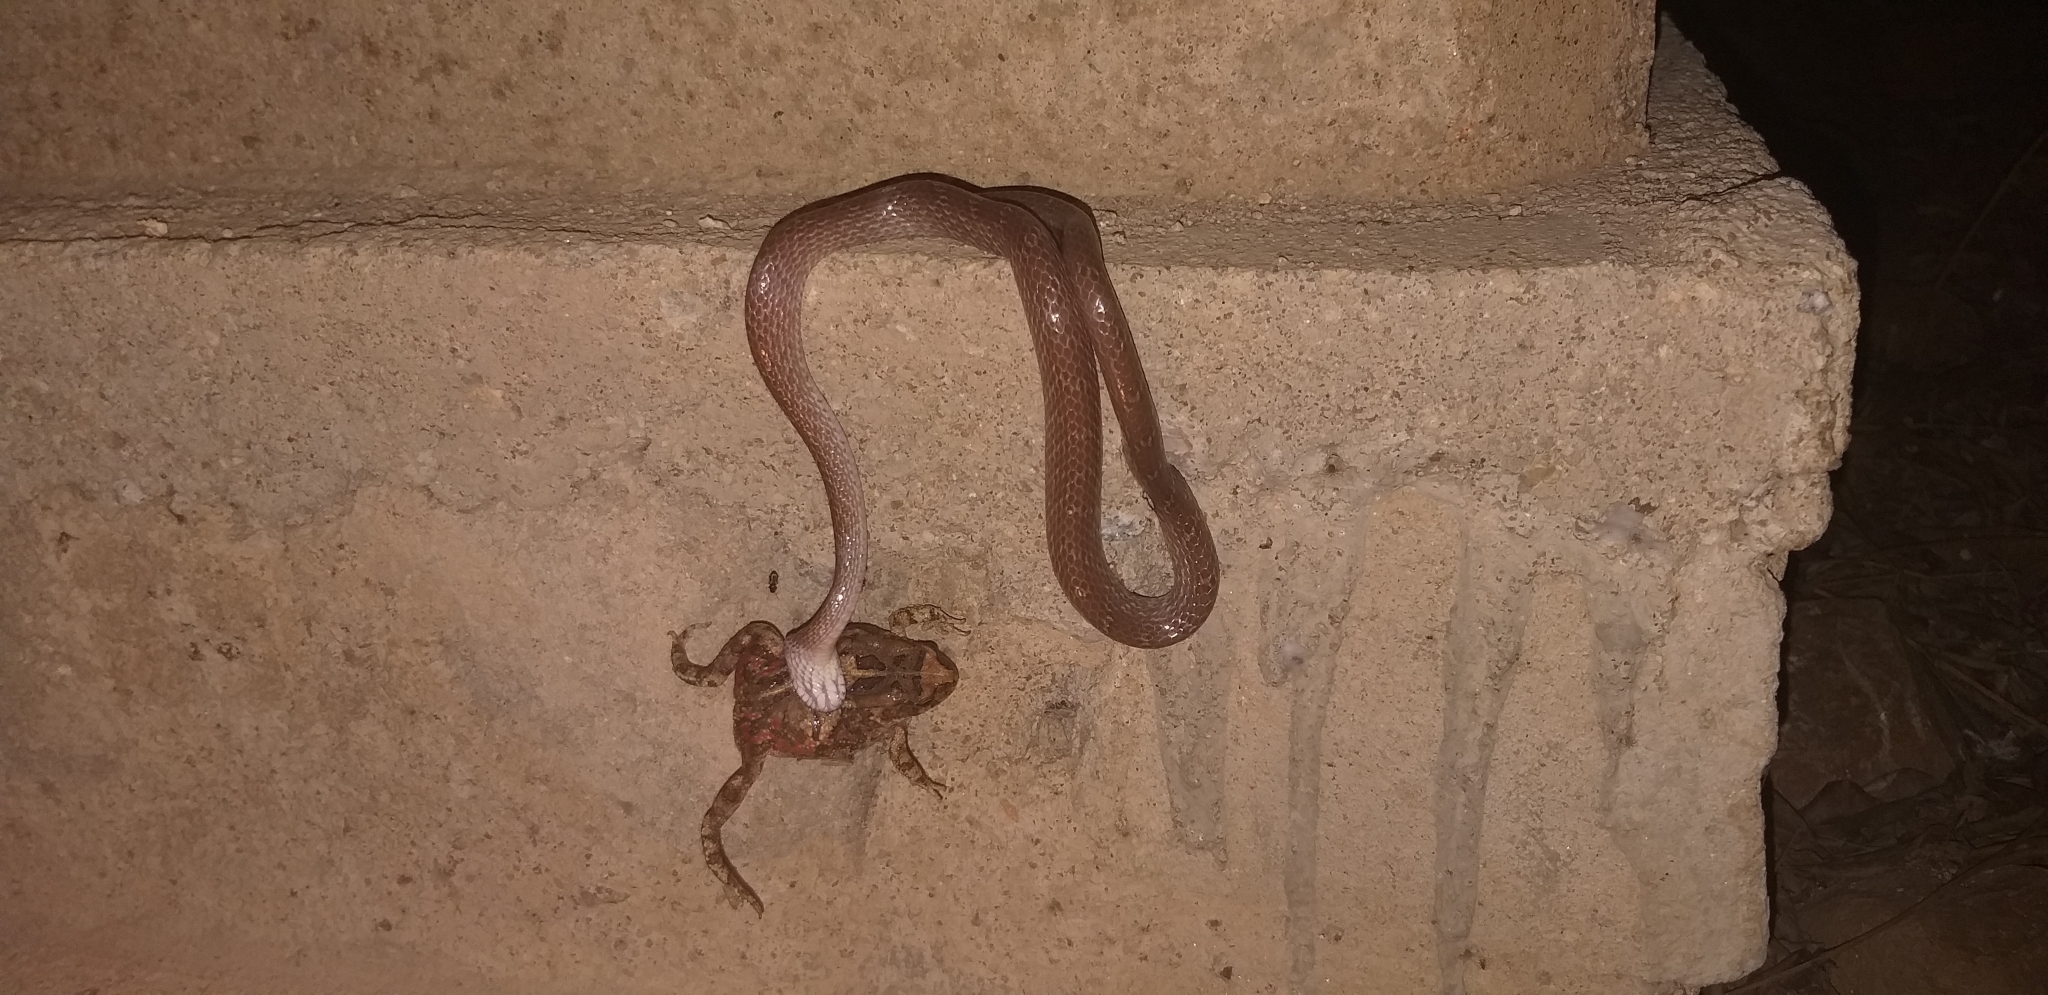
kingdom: Animalia
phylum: Chordata
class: Squamata
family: Colubridae
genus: Dipsadoboa
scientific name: Dipsadoboa aulica
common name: Cross-barred snake
